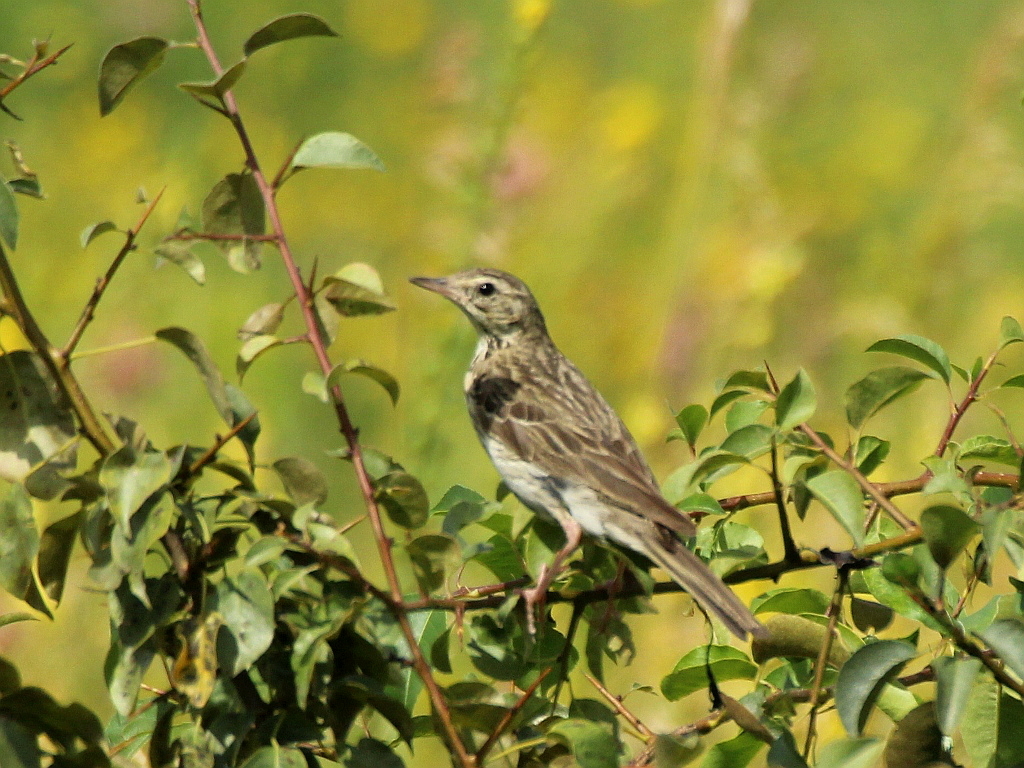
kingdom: Animalia
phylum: Chordata
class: Aves
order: Passeriformes
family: Motacillidae
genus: Anthus
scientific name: Anthus trivialis
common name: Tree pipit
